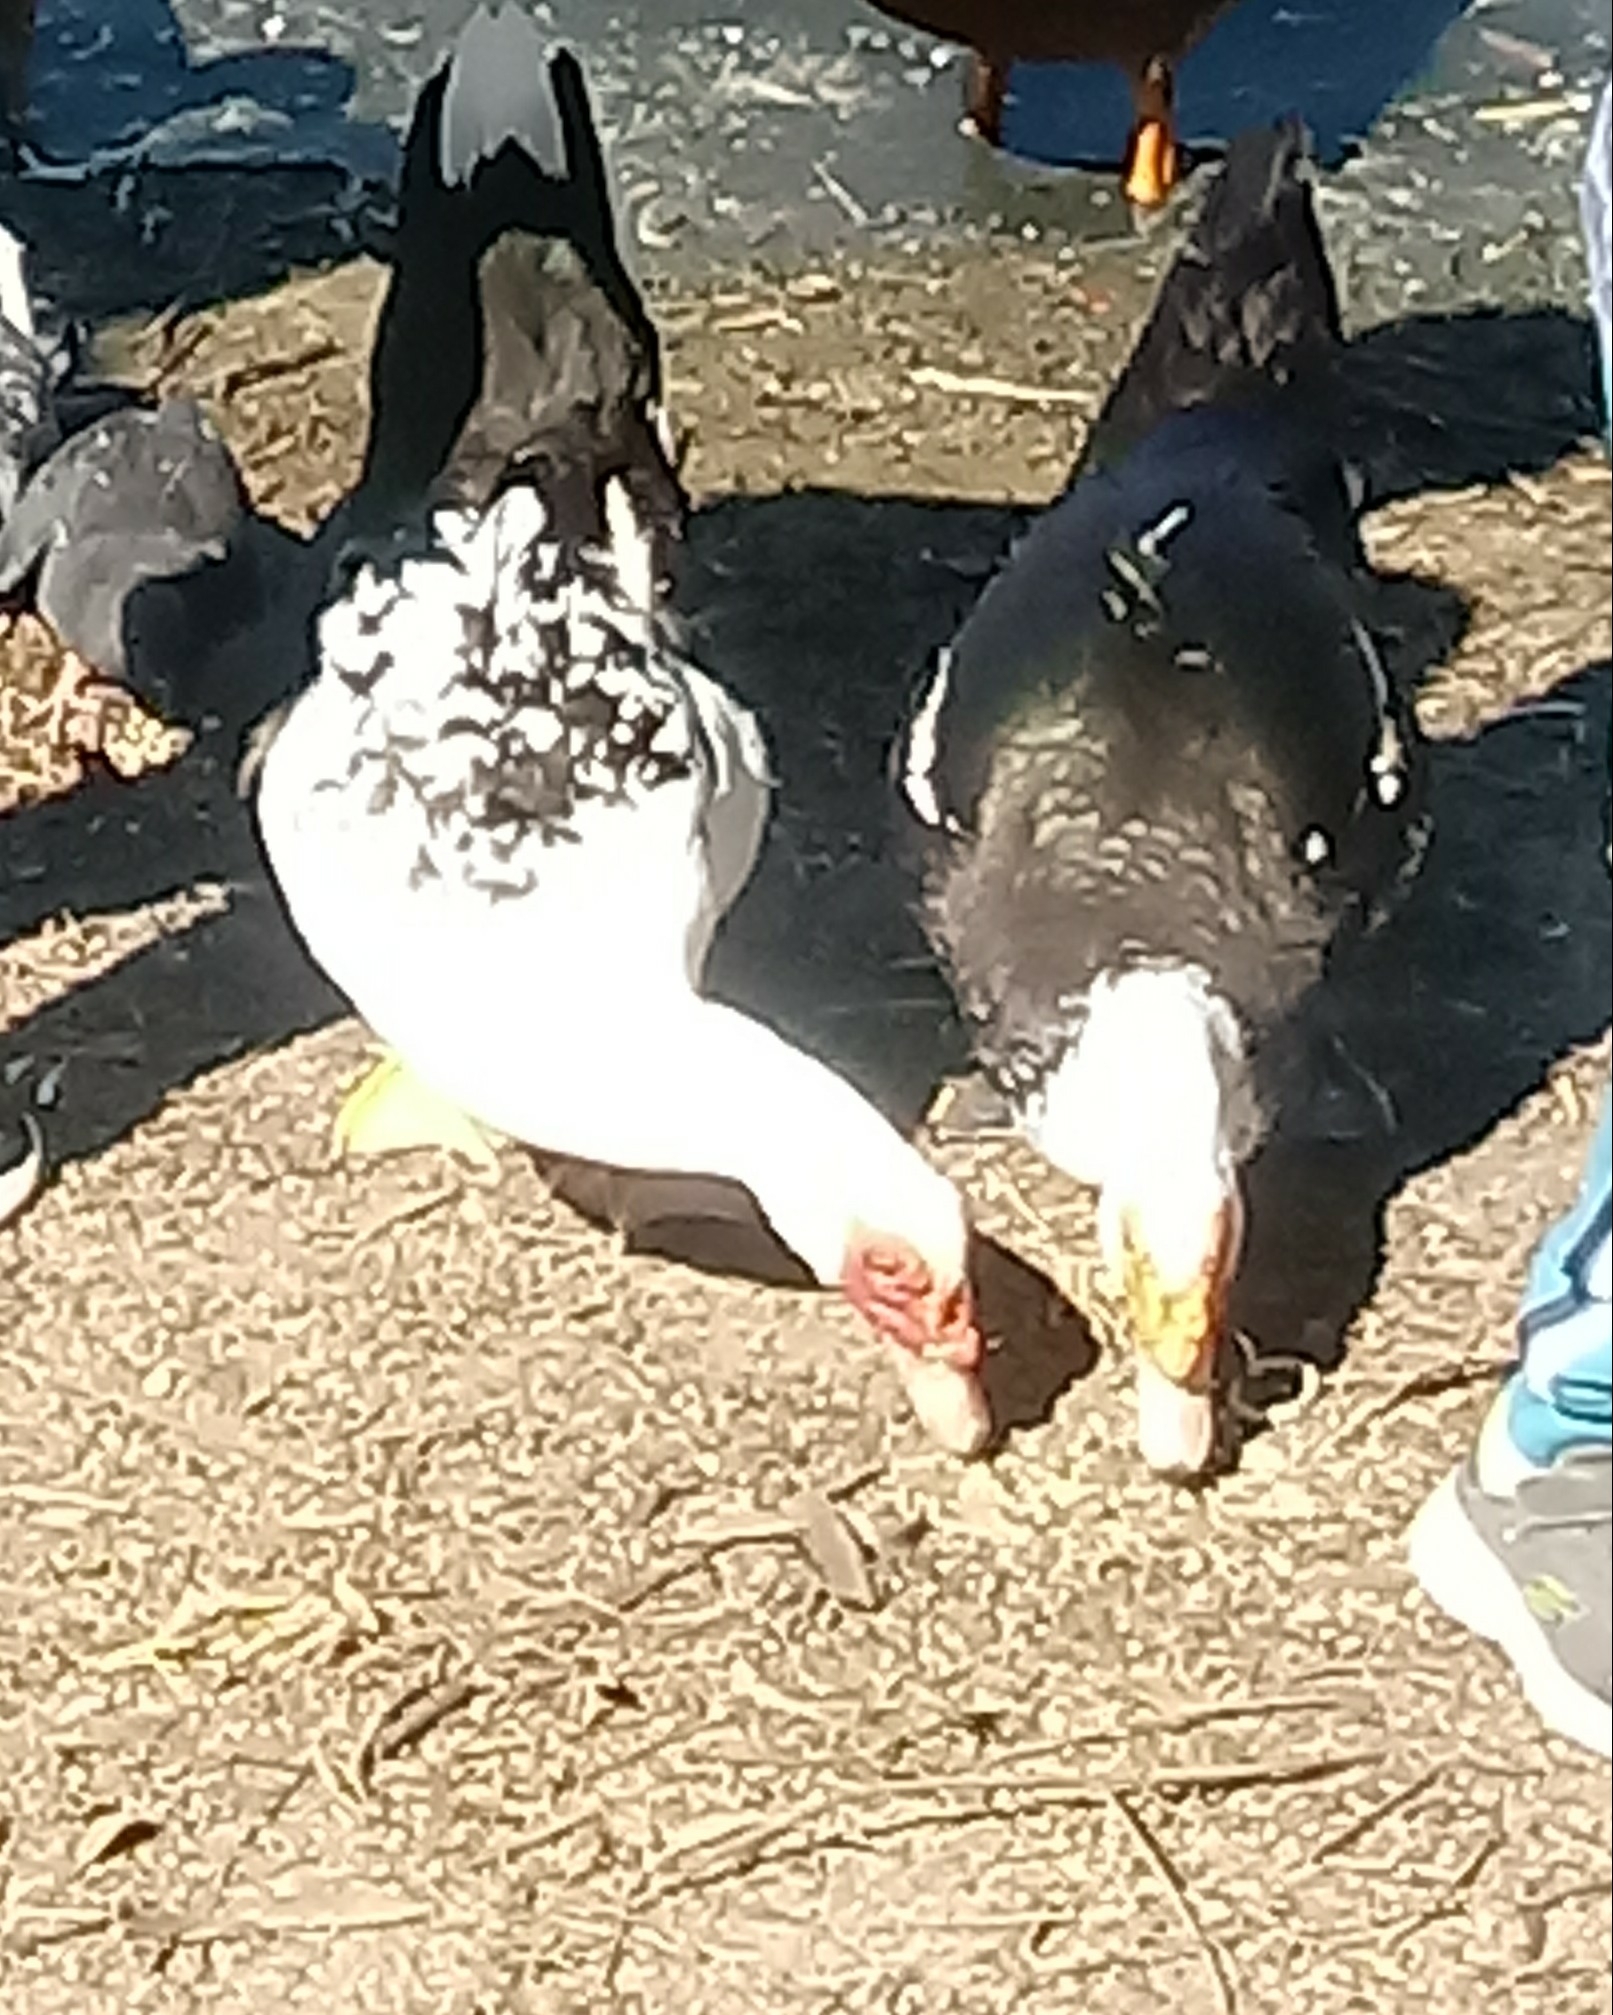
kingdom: Animalia
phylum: Chordata
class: Aves
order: Anseriformes
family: Anatidae
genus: Cairina
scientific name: Cairina moschata
